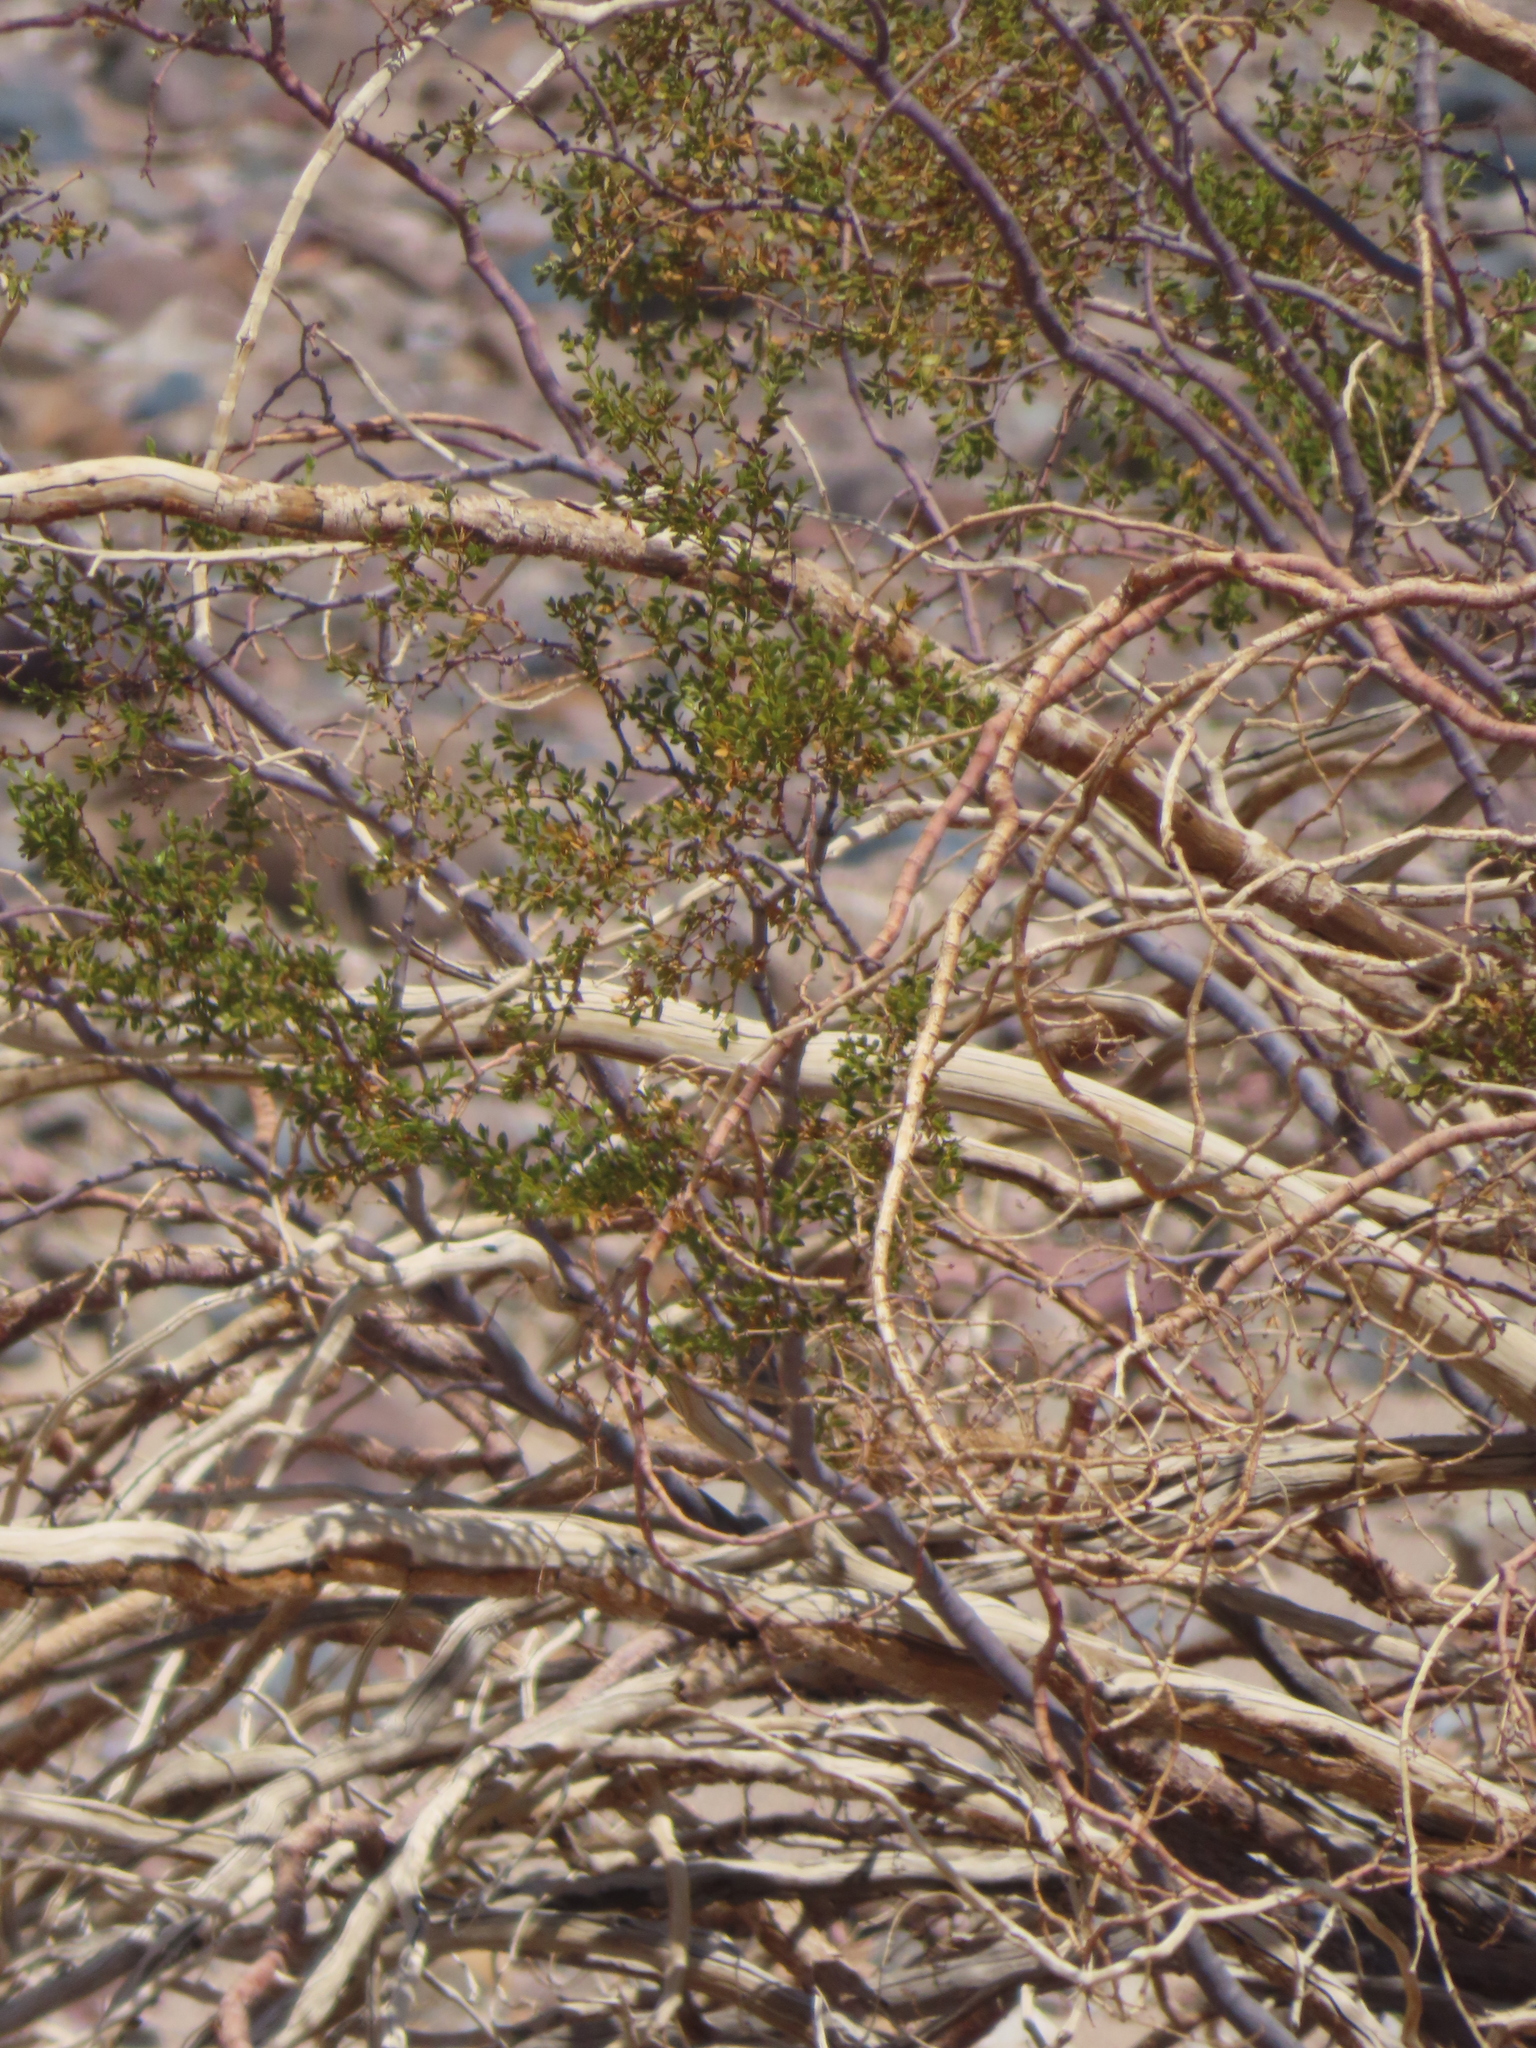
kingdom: Plantae
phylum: Tracheophyta
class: Magnoliopsida
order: Zygophyllales
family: Zygophyllaceae
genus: Larrea
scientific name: Larrea tridentata
